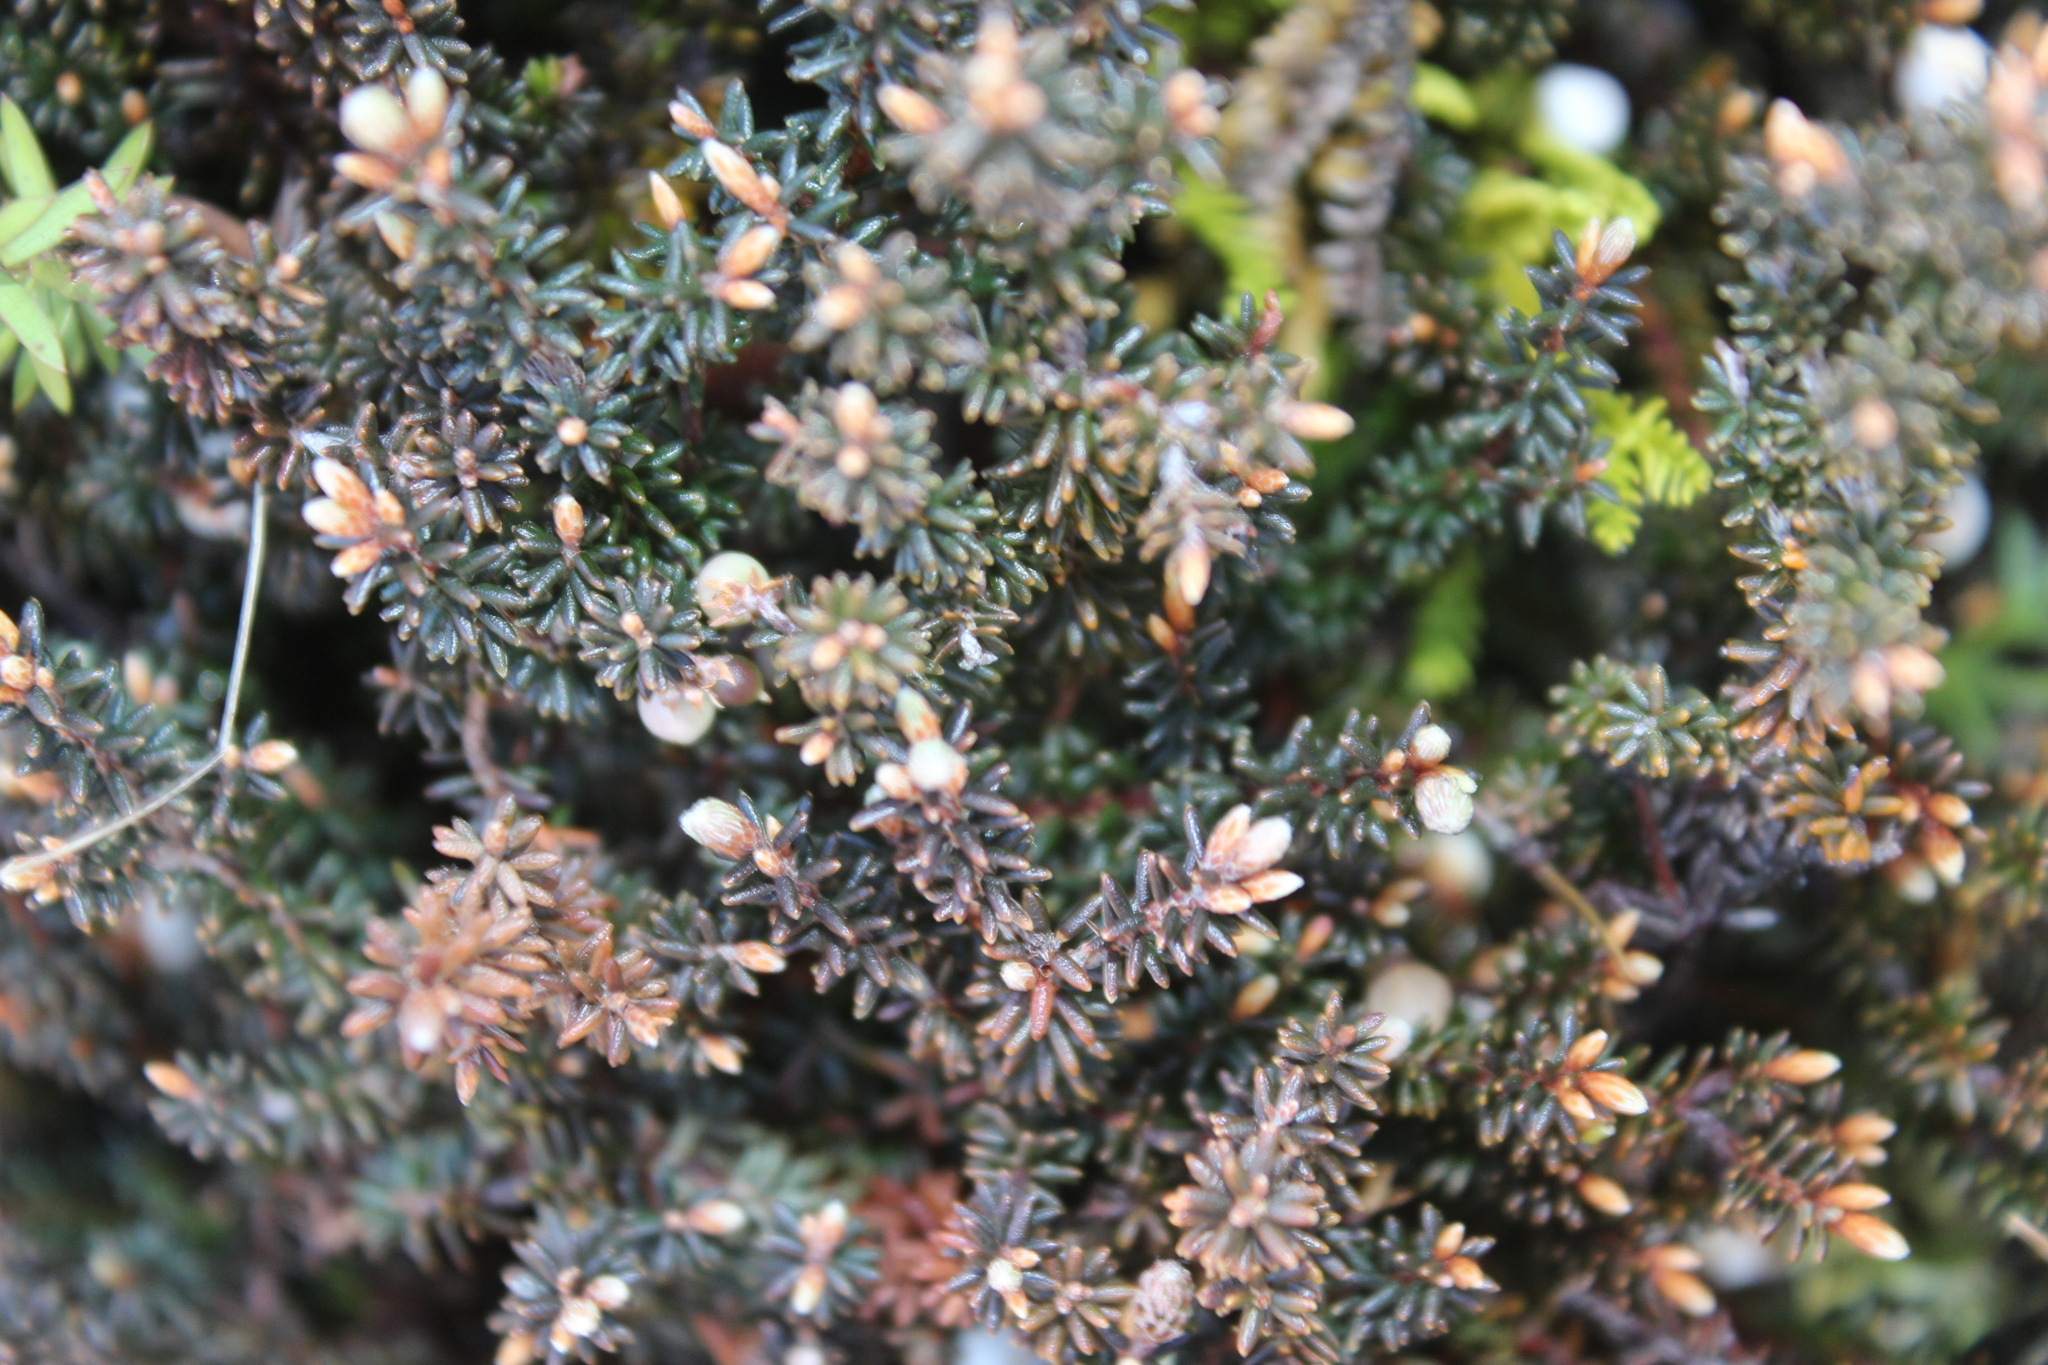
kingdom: Plantae
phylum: Tracheophyta
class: Magnoliopsida
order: Ericales
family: Ericaceae
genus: Androstoma
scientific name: Androstoma empetrifolia
